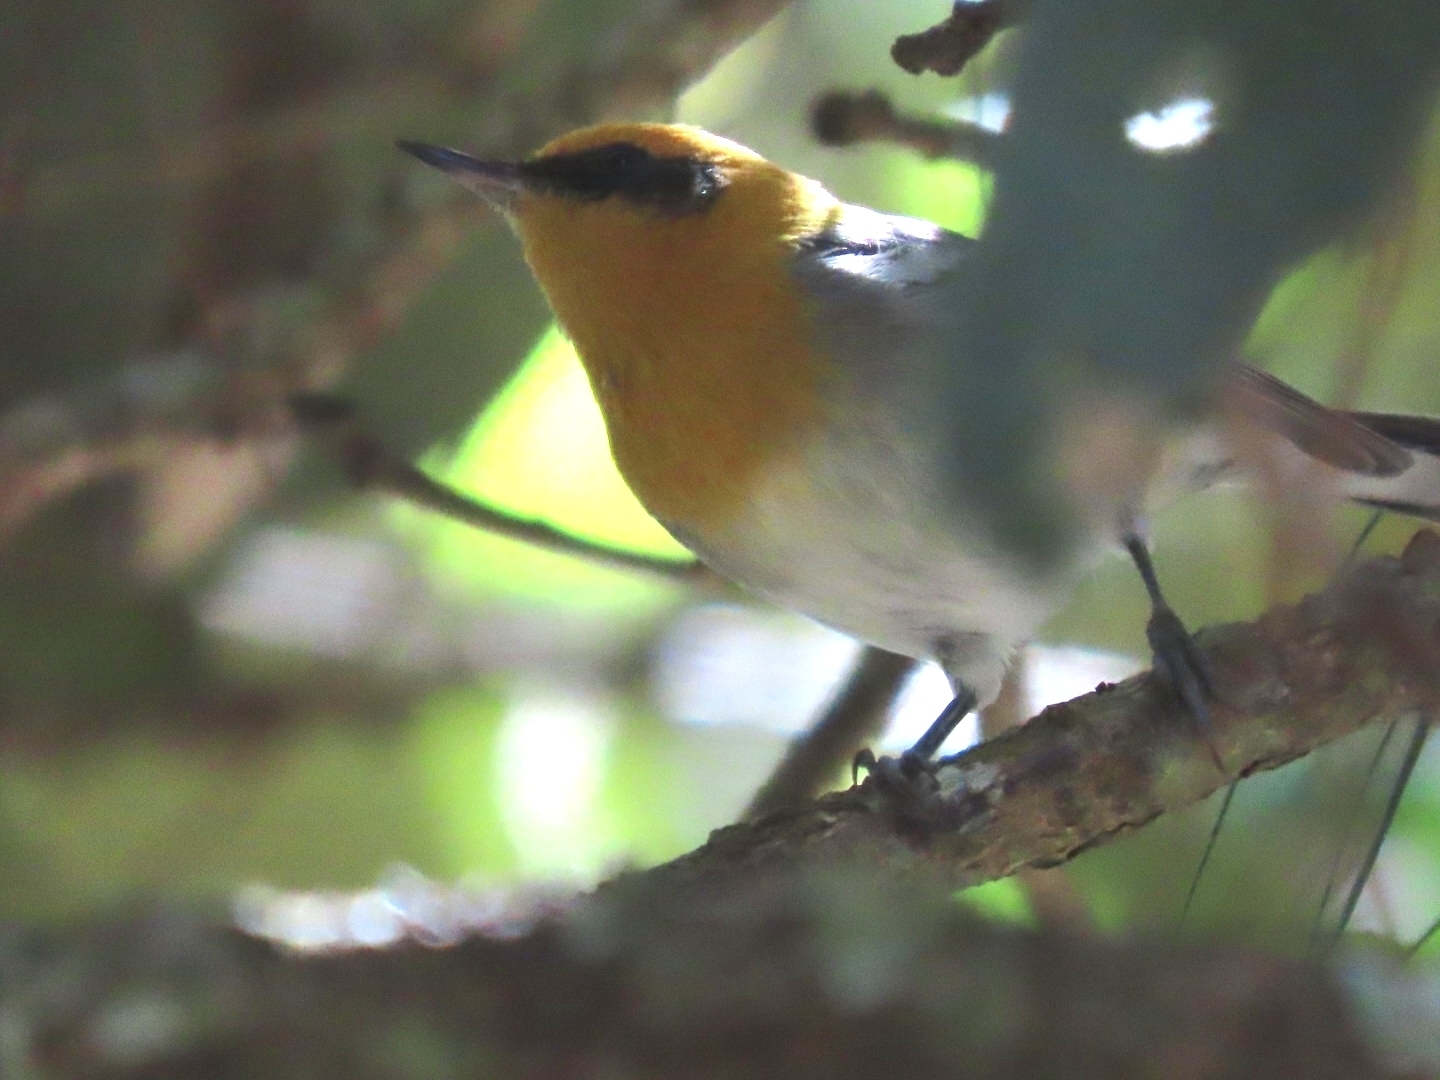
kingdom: Animalia
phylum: Chordata
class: Aves
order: Passeriformes
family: Peucedramidae
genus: Peucedramus
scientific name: Peucedramus taeniatus
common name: Olive warbler
